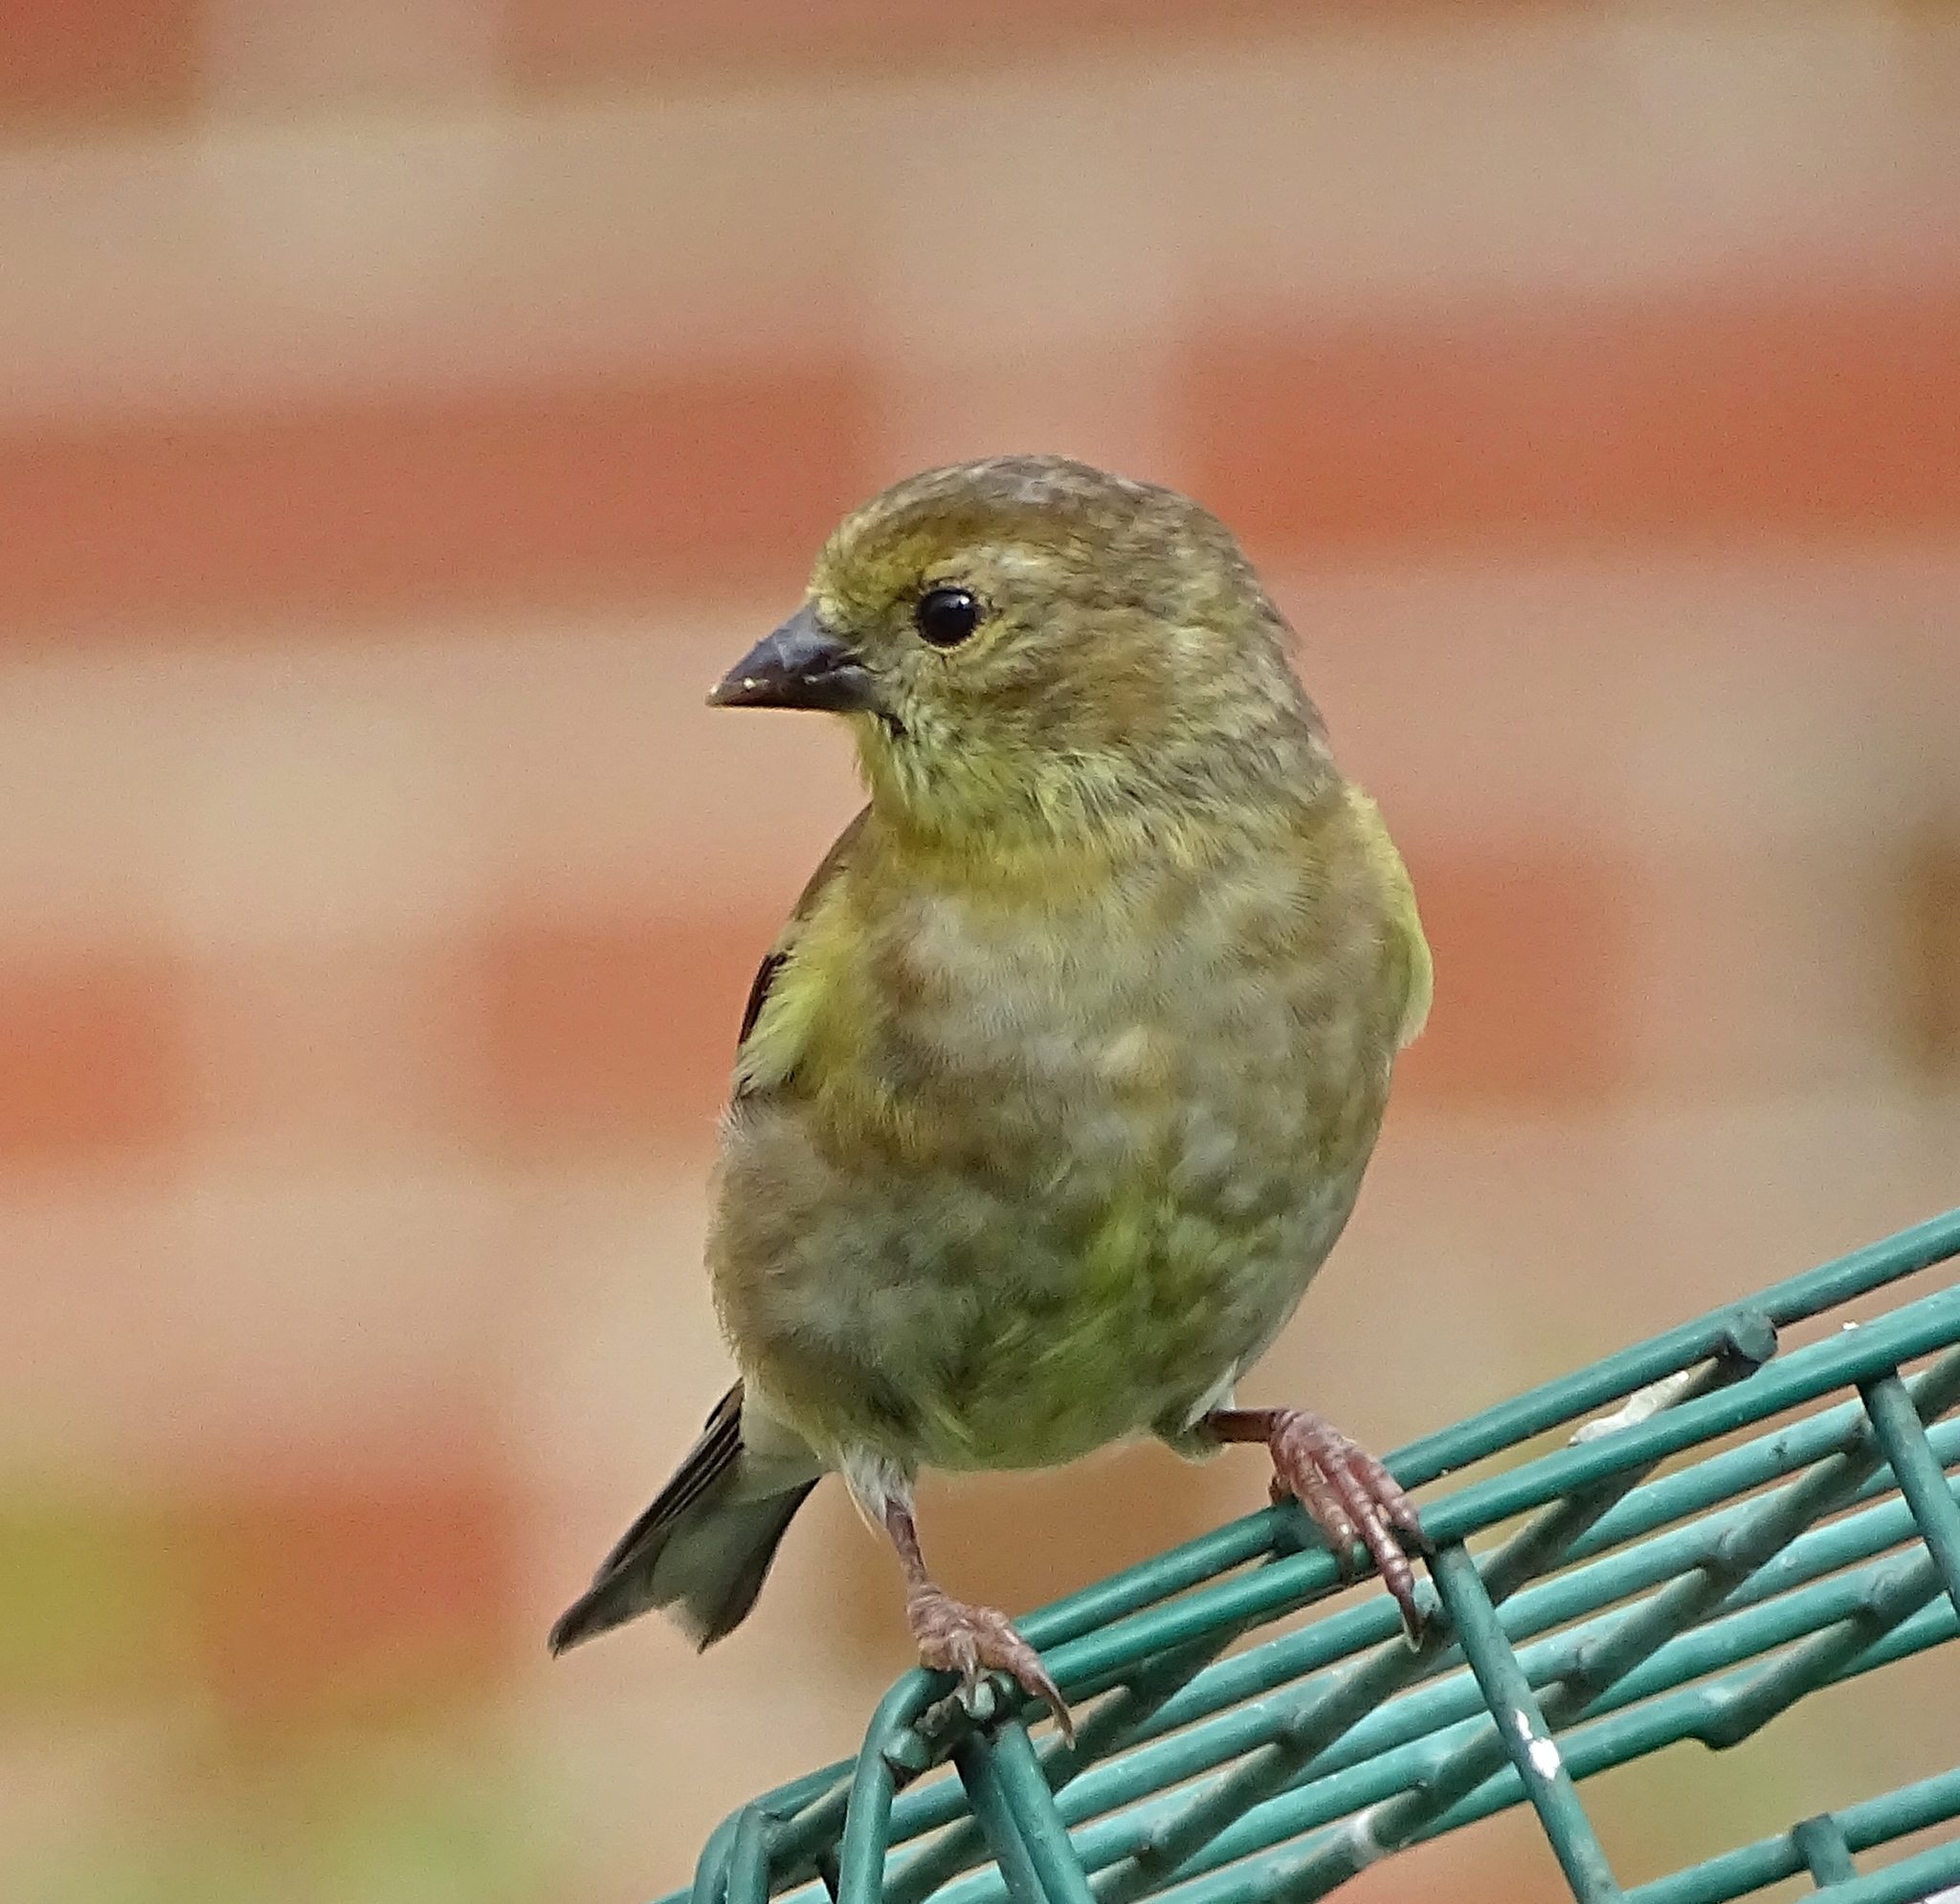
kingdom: Animalia
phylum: Chordata
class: Aves
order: Passeriformes
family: Fringillidae
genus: Spinus
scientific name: Spinus tristis
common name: American goldfinch
